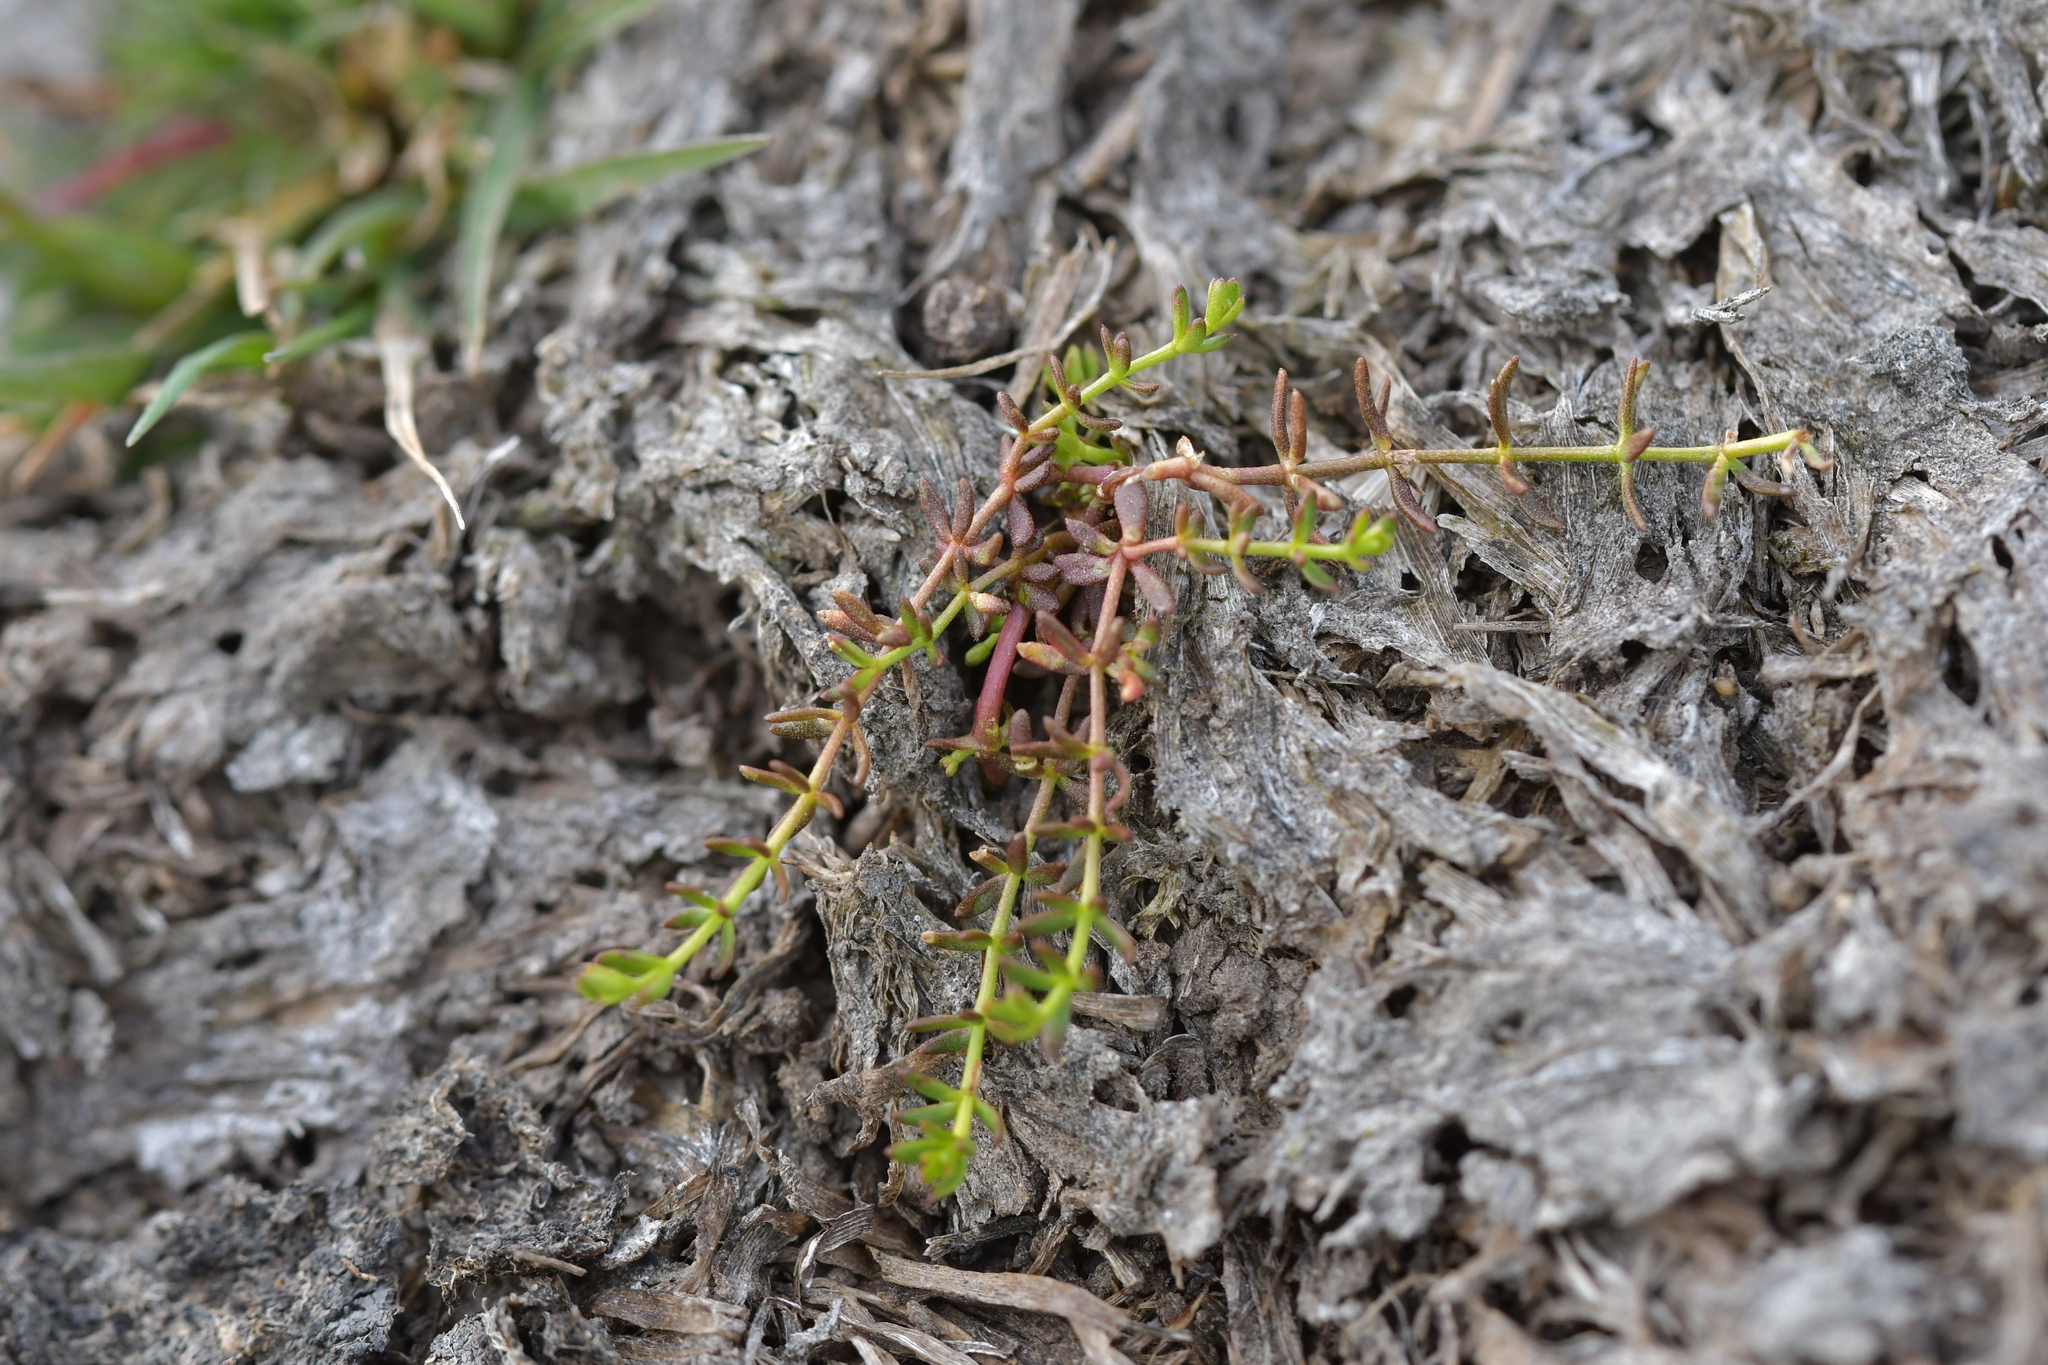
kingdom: Plantae
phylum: Tracheophyta
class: Magnoliopsida
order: Gentianales
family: Rubiaceae
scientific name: Rubiaceae
